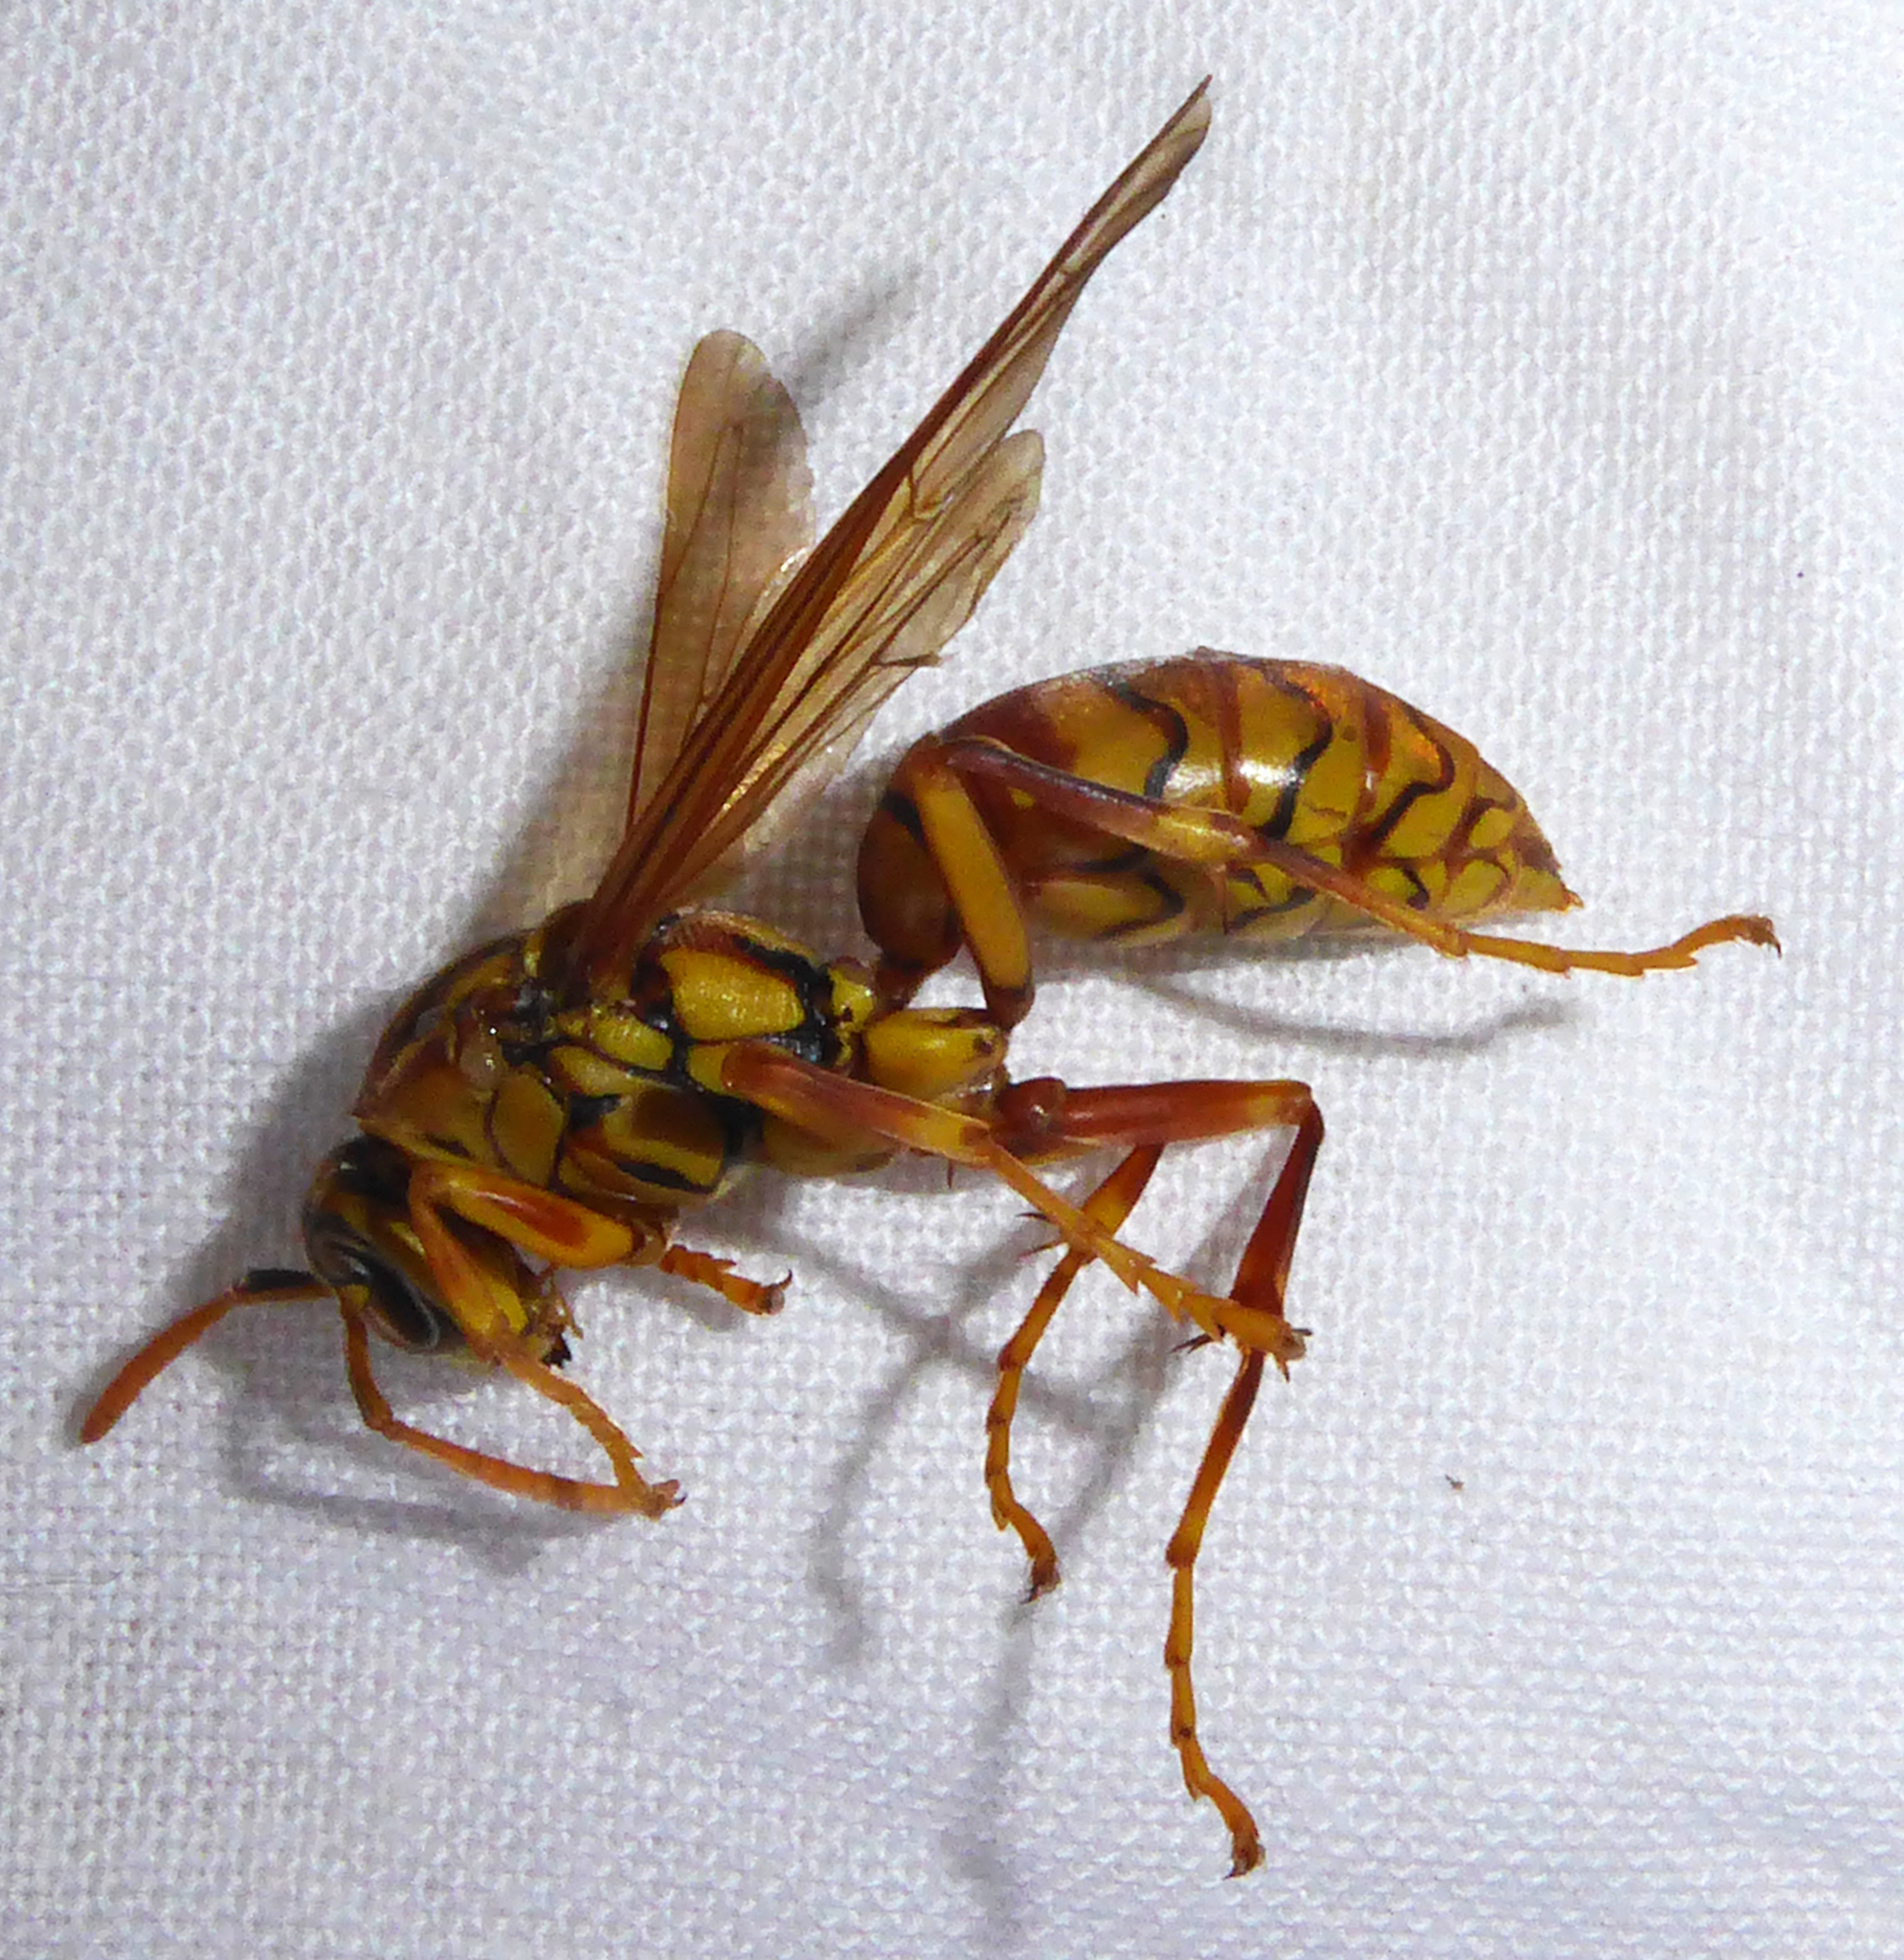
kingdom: Animalia
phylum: Arthropoda
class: Insecta
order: Hymenoptera
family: Eumenidae
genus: Polistes
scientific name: Polistes olivaceus
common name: Paper wasp
